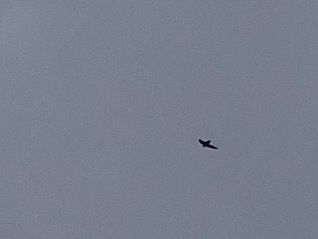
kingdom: Animalia
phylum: Chordata
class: Aves
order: Apodiformes
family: Apodidae
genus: Chaetura
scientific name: Chaetura pelagica
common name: Chimney swift
